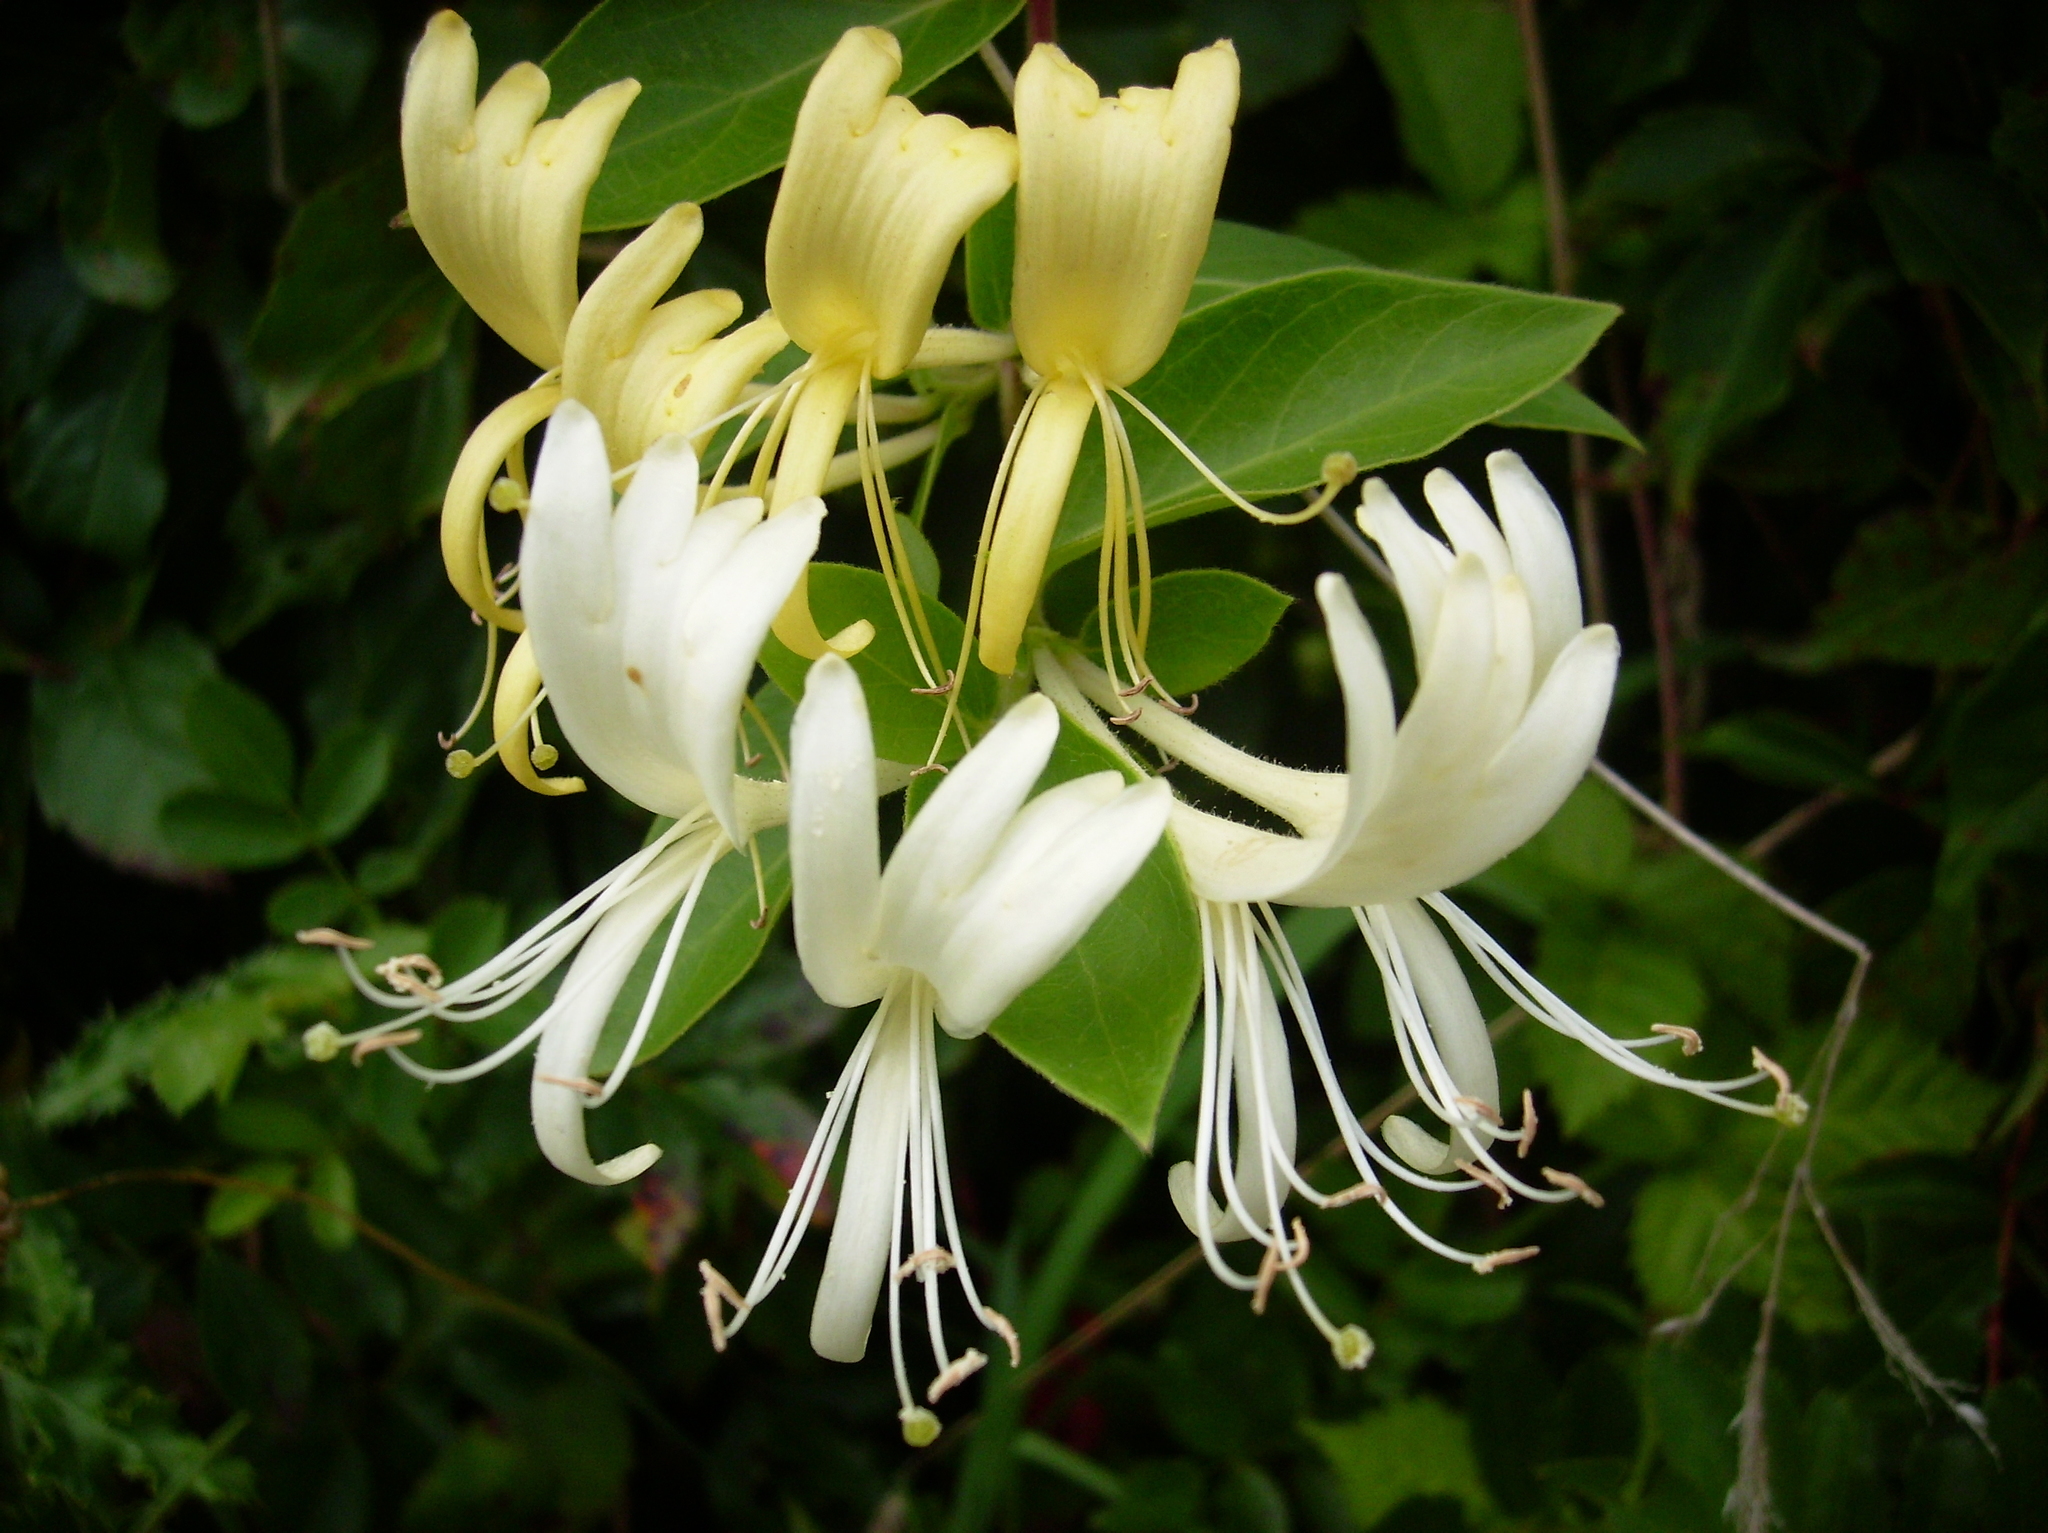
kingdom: Plantae
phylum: Tracheophyta
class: Magnoliopsida
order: Dipsacales
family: Caprifoliaceae
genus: Lonicera
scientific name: Lonicera japonica
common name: Japanese honeysuckle
